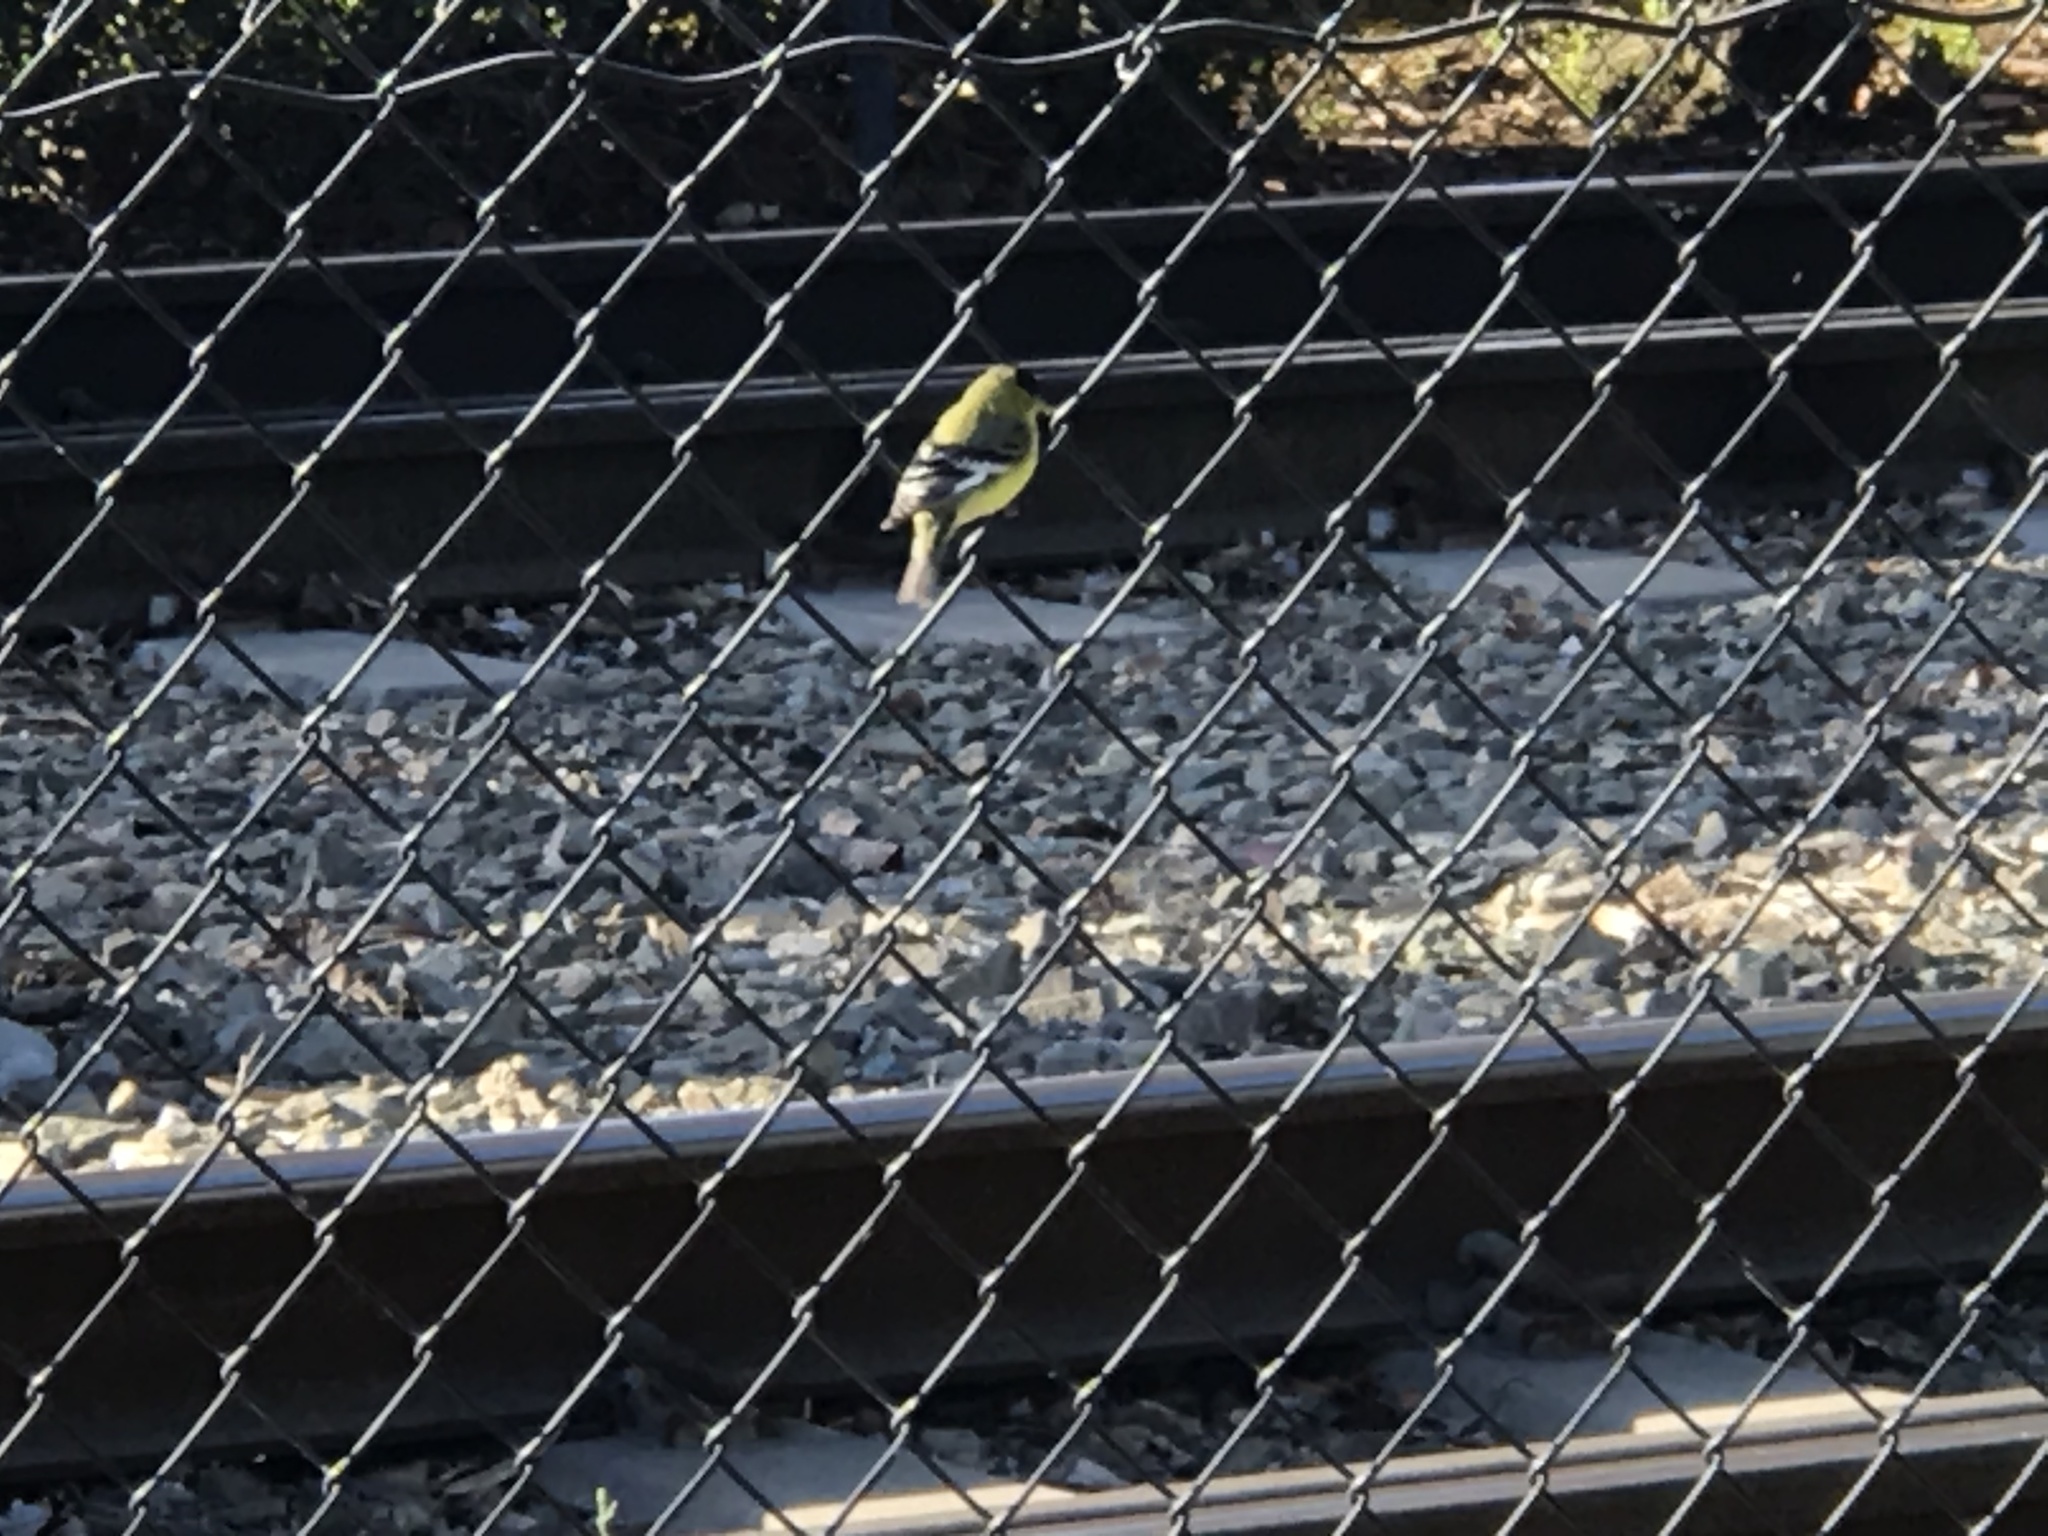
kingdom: Animalia
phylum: Chordata
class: Aves
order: Passeriformes
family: Fringillidae
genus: Spinus
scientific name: Spinus psaltria
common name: Lesser goldfinch
